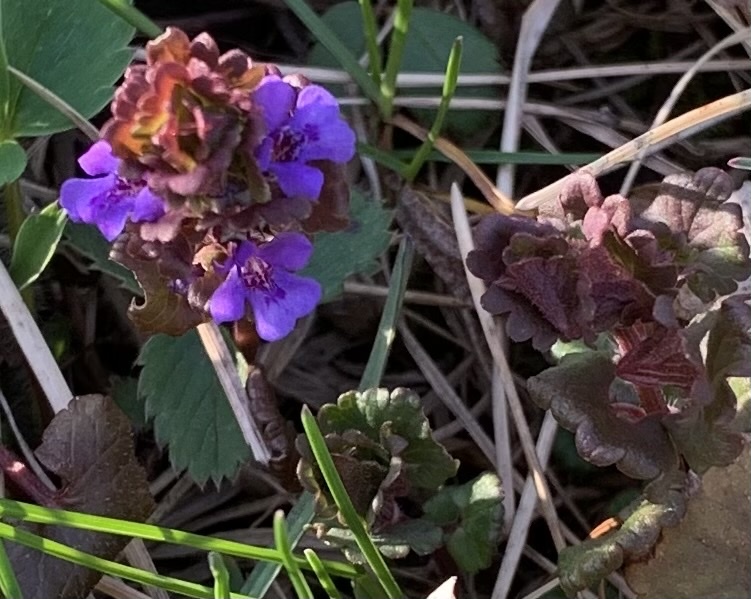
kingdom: Plantae
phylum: Tracheophyta
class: Magnoliopsida
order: Lamiales
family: Lamiaceae
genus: Glechoma
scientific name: Glechoma hederacea
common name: Ground ivy
